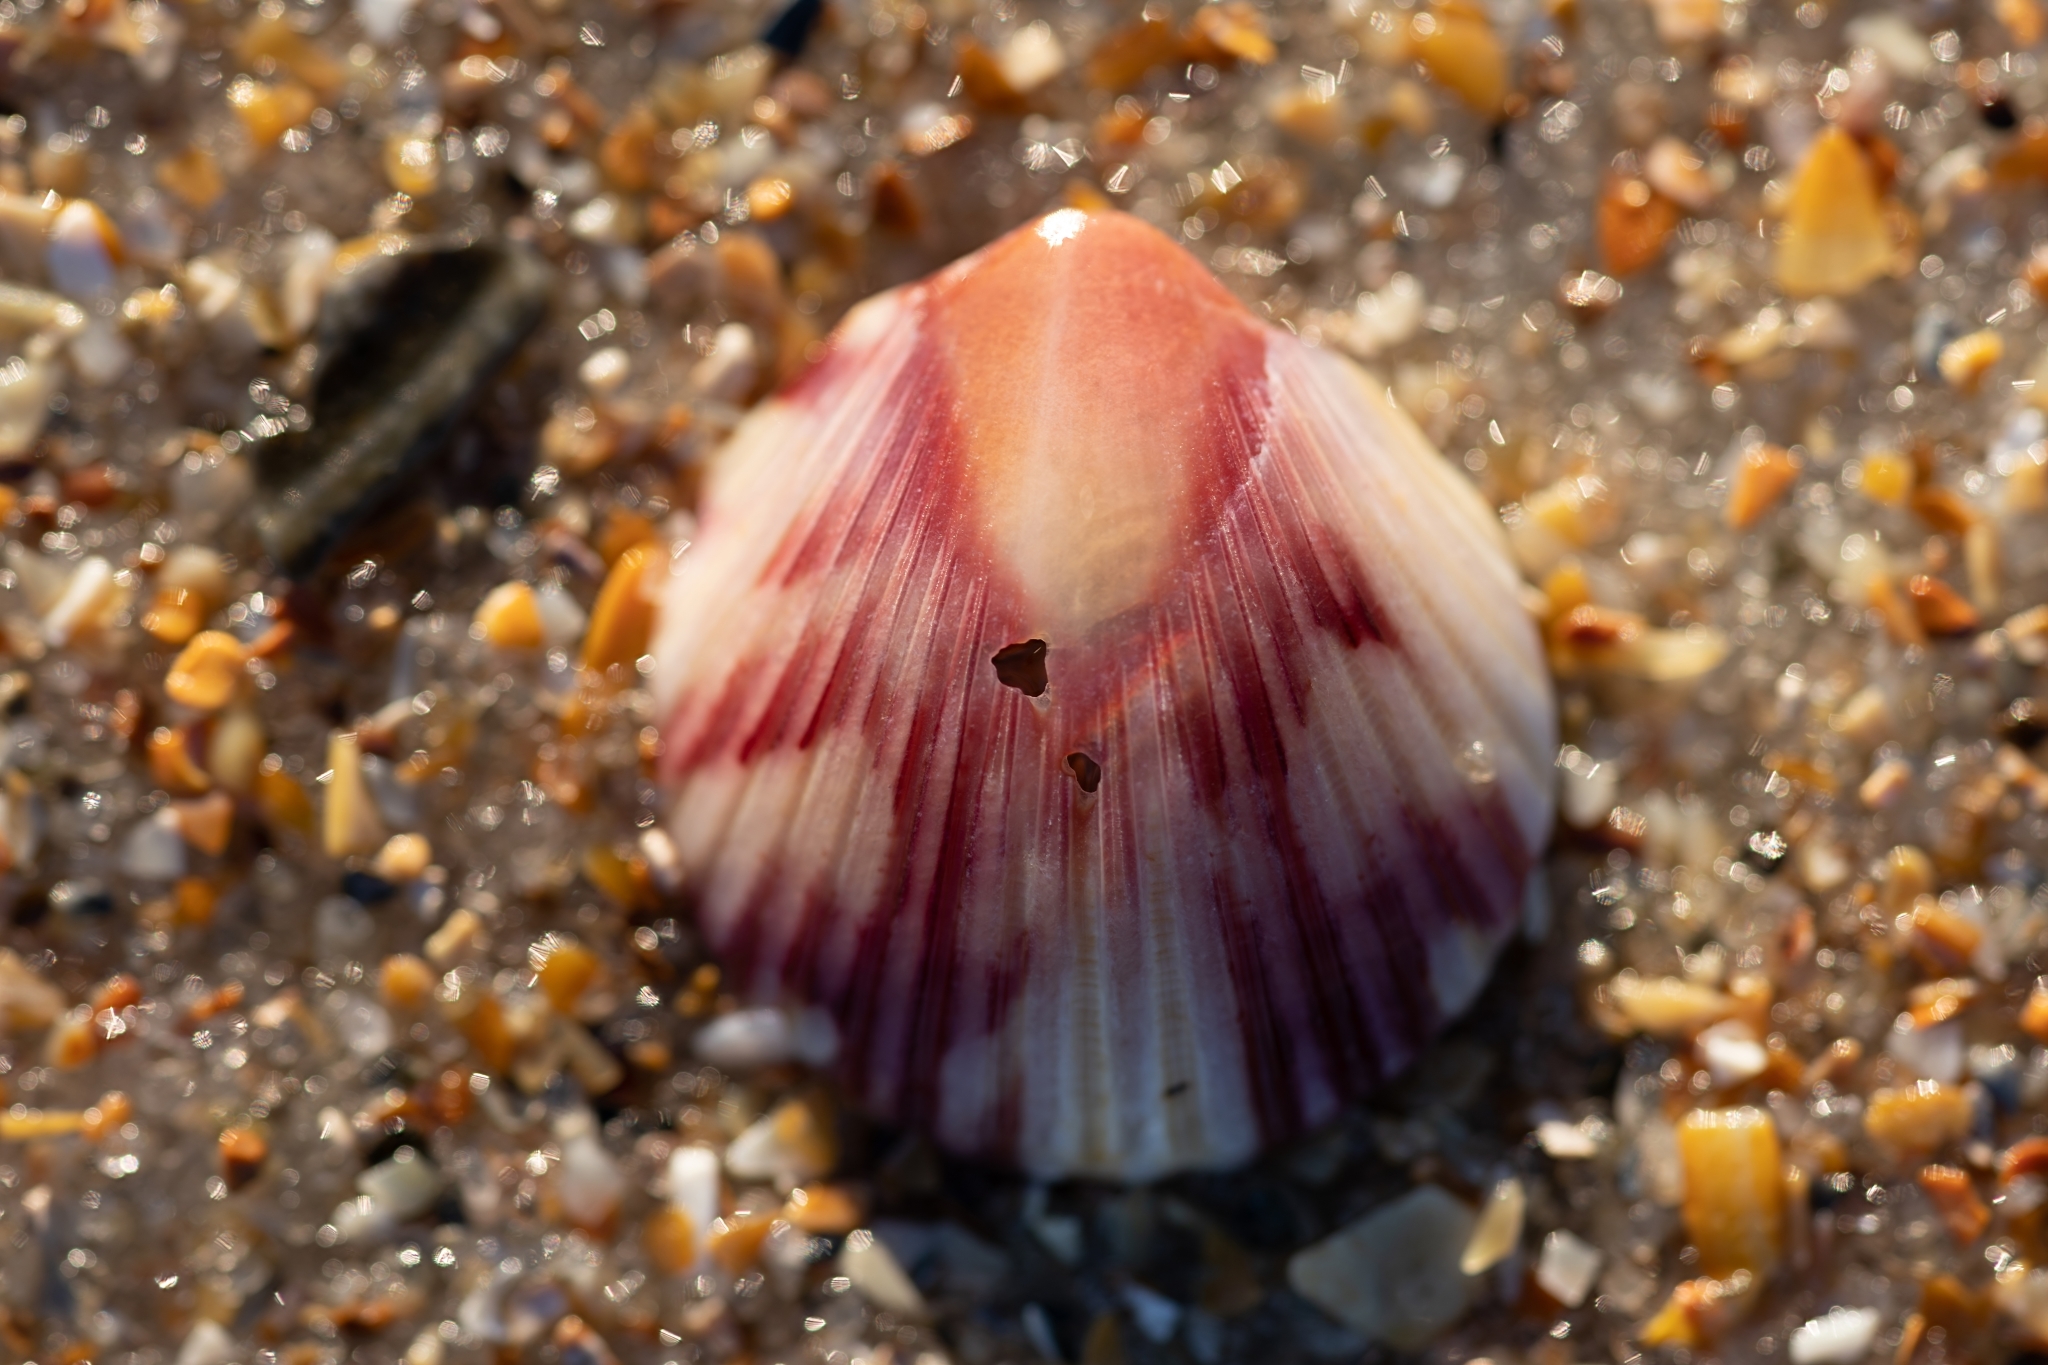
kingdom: Animalia
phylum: Mollusca
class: Bivalvia
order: Pectinida
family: Pectinidae
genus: Argopecten
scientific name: Argopecten gibbus
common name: Atlantic calico scallop
